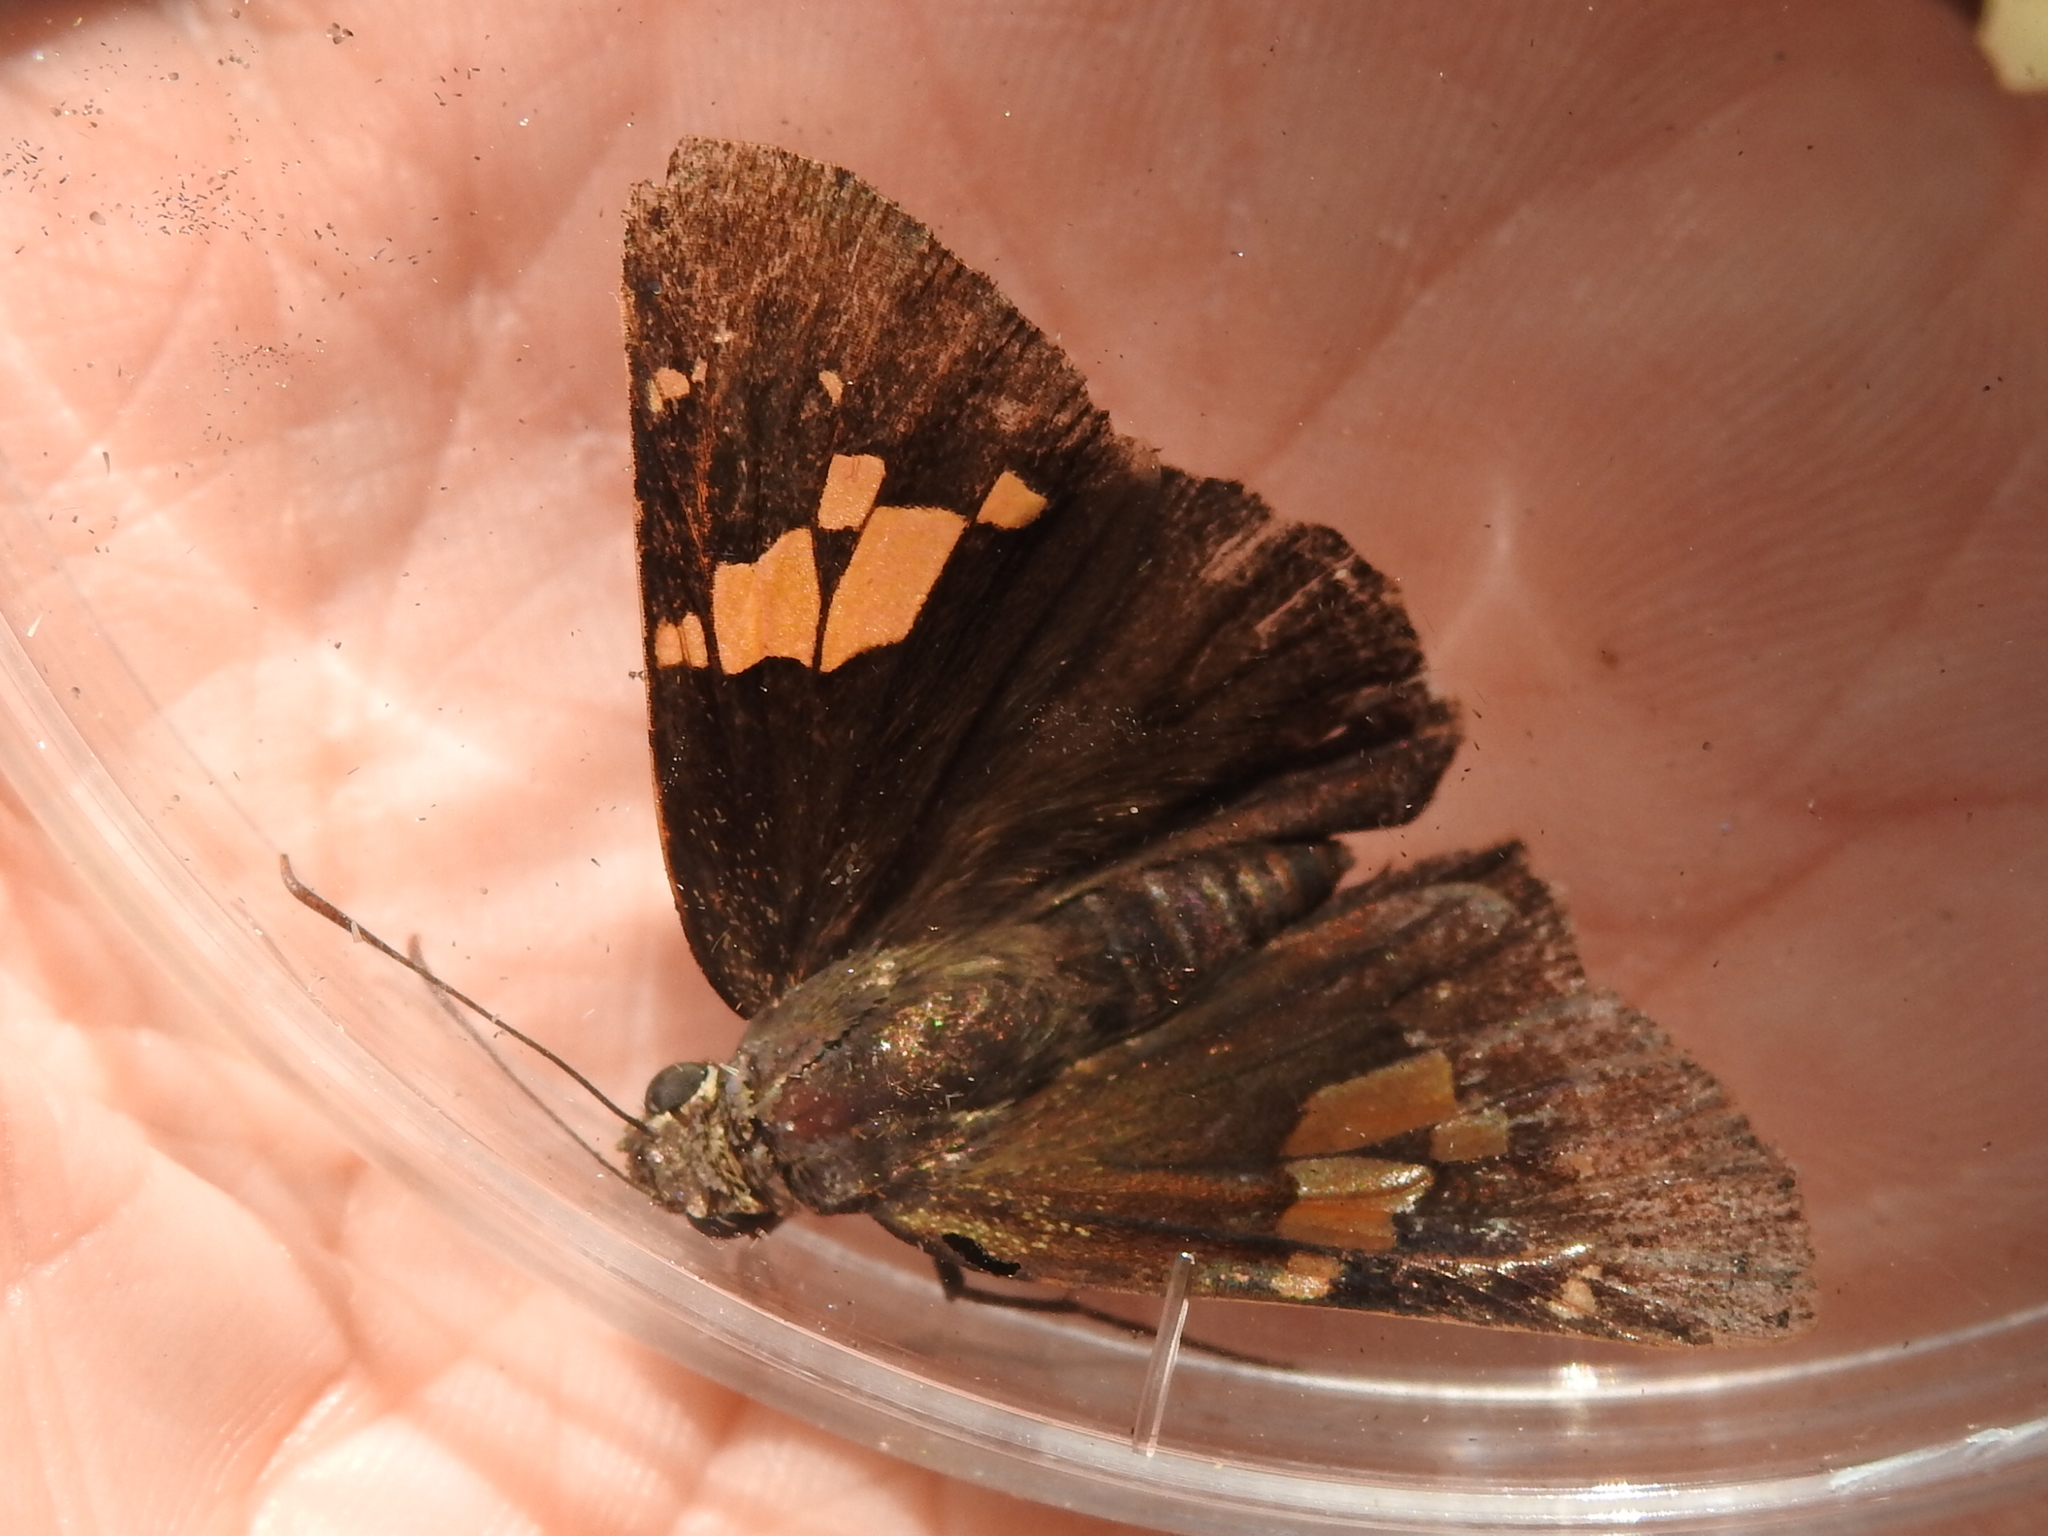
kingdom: Animalia
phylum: Arthropoda
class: Insecta
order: Lepidoptera
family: Hesperiidae
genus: Epargyreus
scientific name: Epargyreus clarus
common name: Silver-spotted skipper
